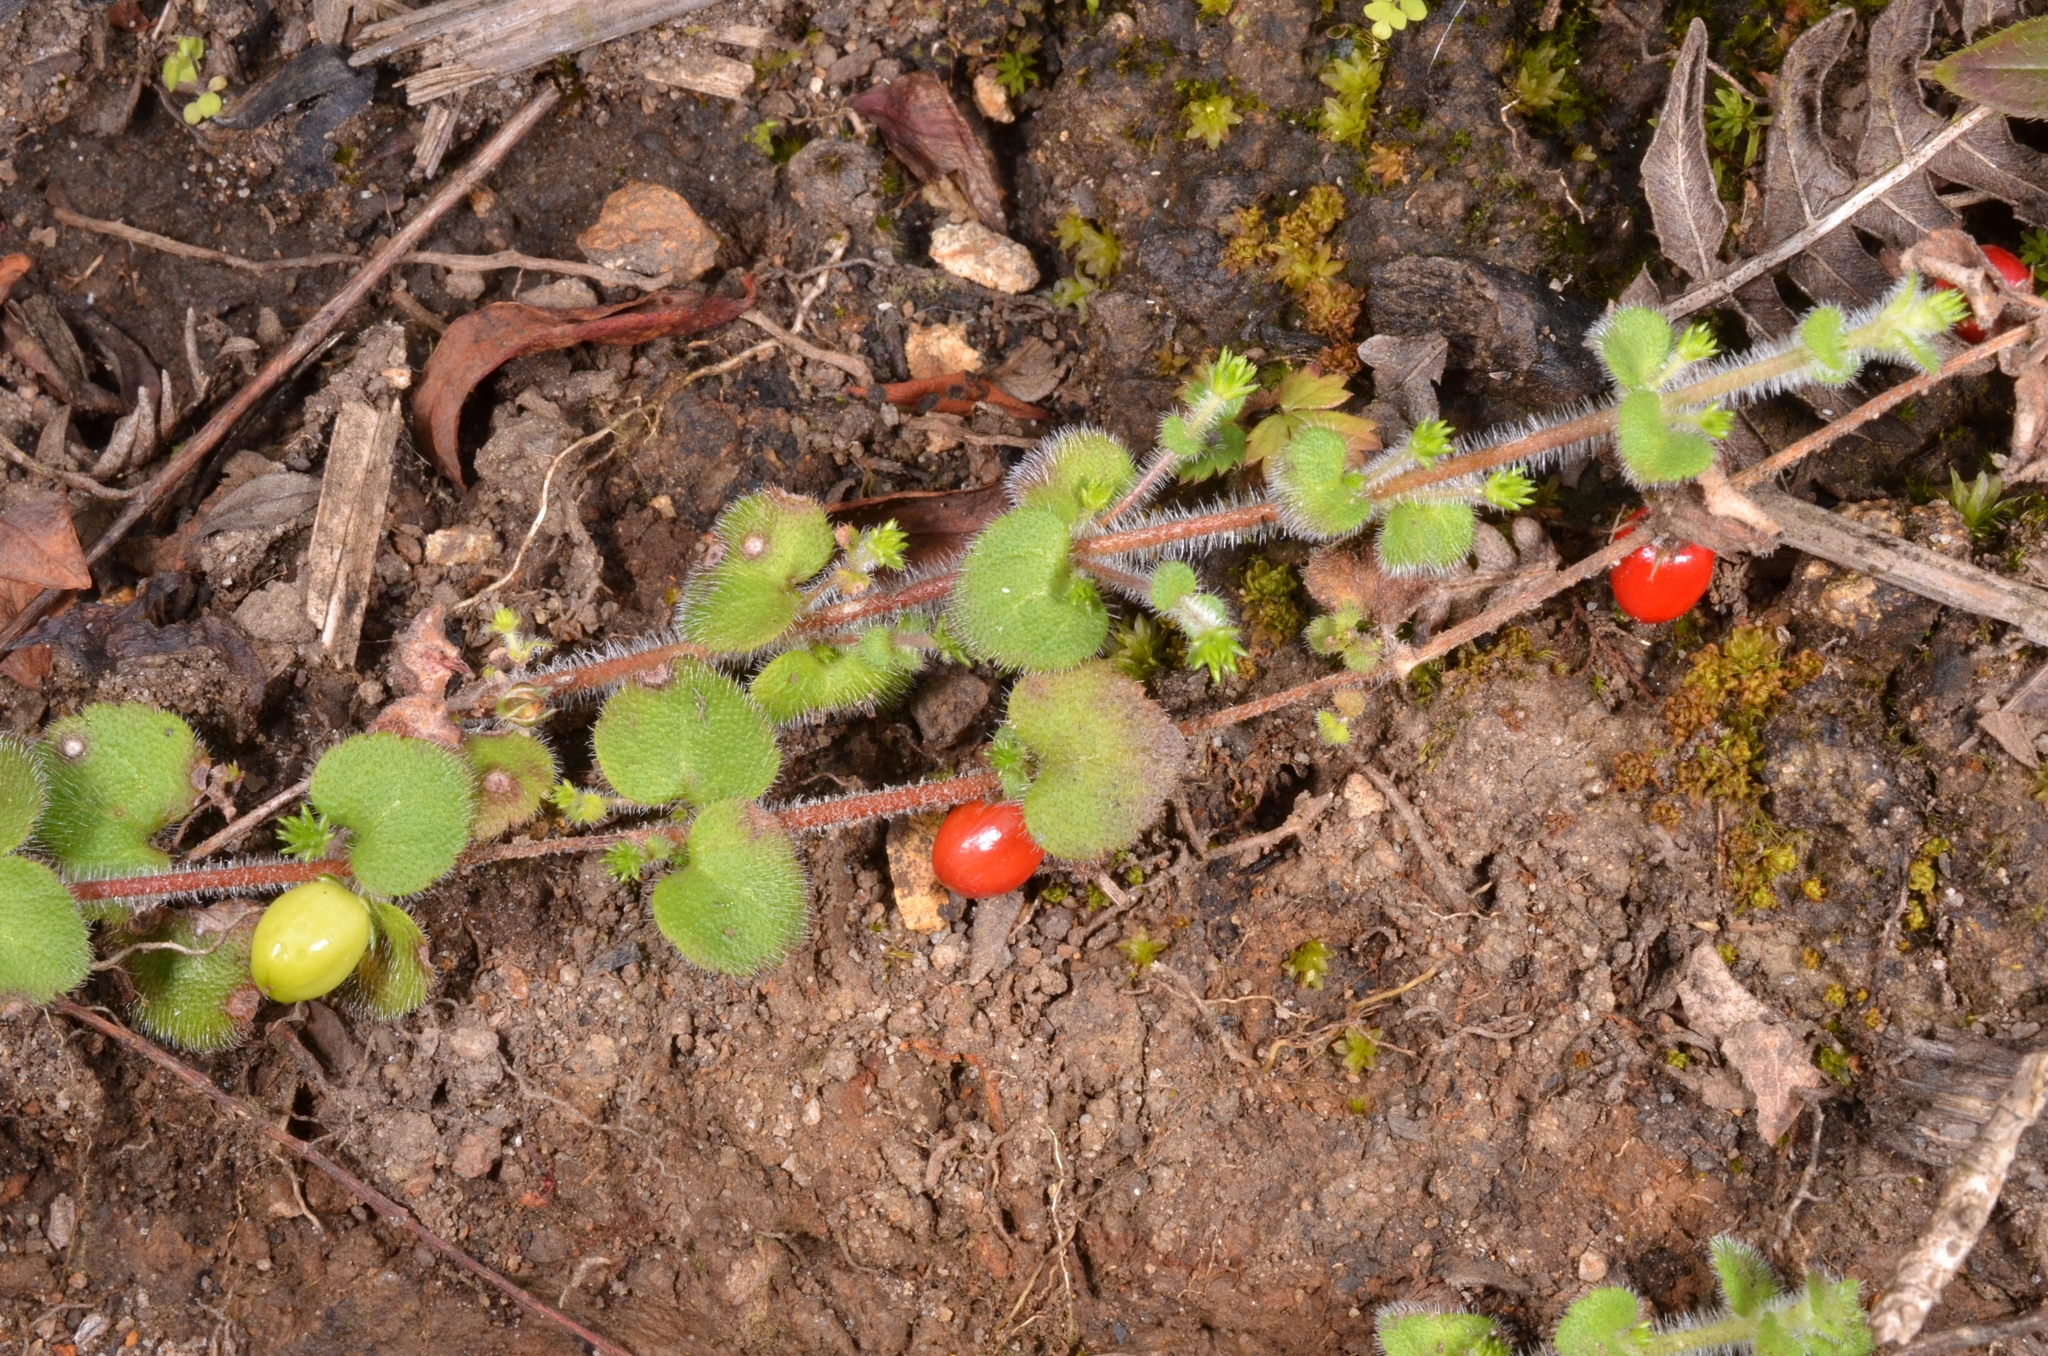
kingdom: Plantae
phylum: Tracheophyta
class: Magnoliopsida
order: Lamiales
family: Plantaginaceae
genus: Hemiphragma
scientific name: Hemiphragma heterophyllum
